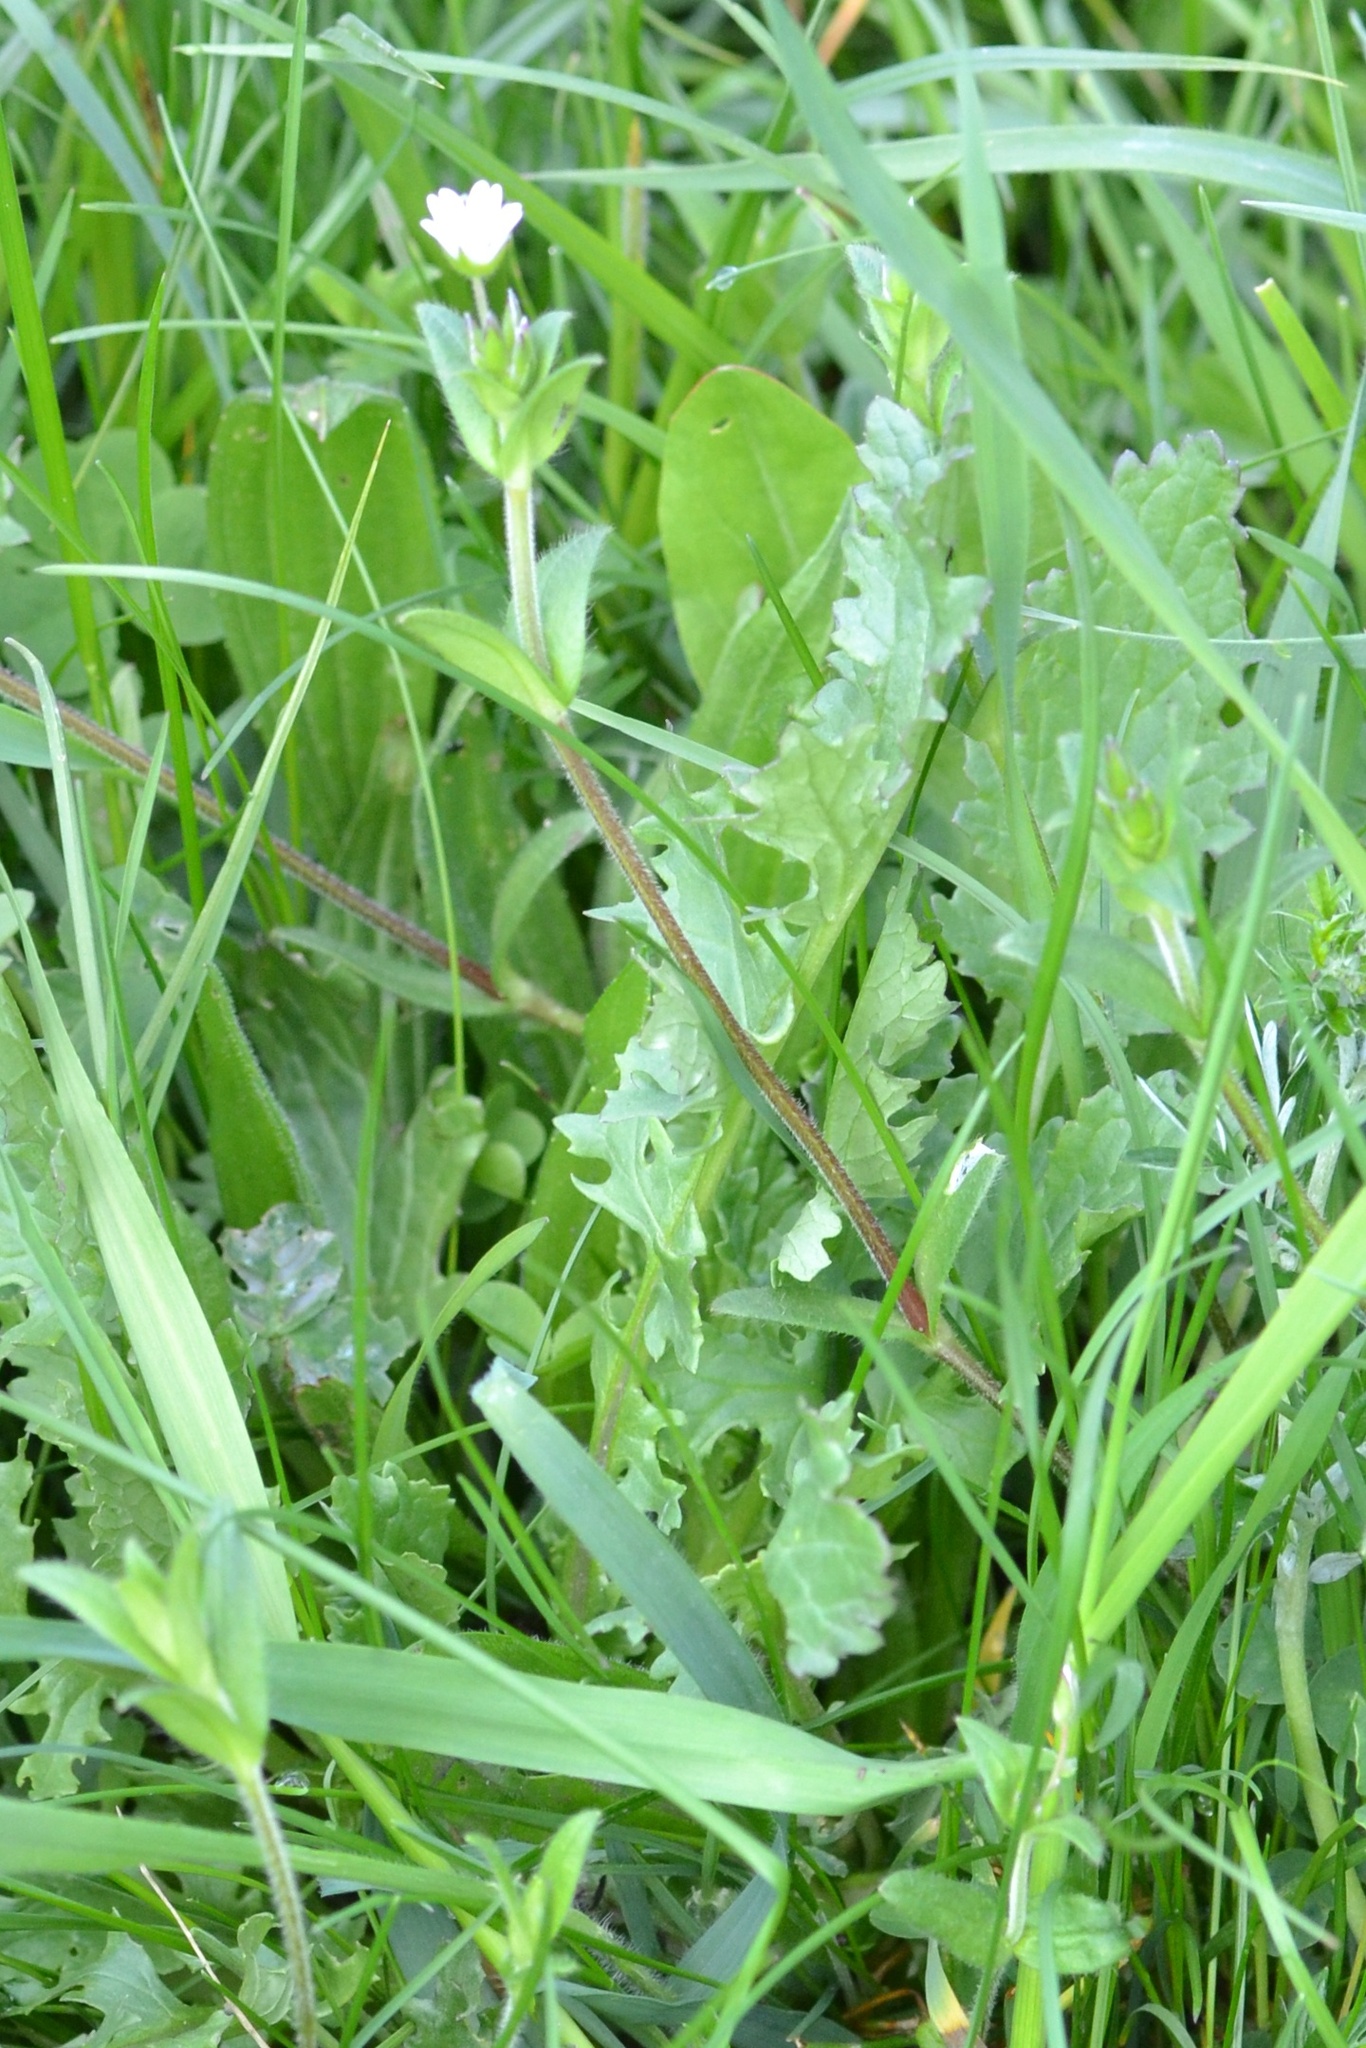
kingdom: Plantae
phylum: Tracheophyta
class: Magnoliopsida
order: Caryophyllales
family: Caryophyllaceae
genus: Cerastium
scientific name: Cerastium holosteoides
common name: Big chickweed
